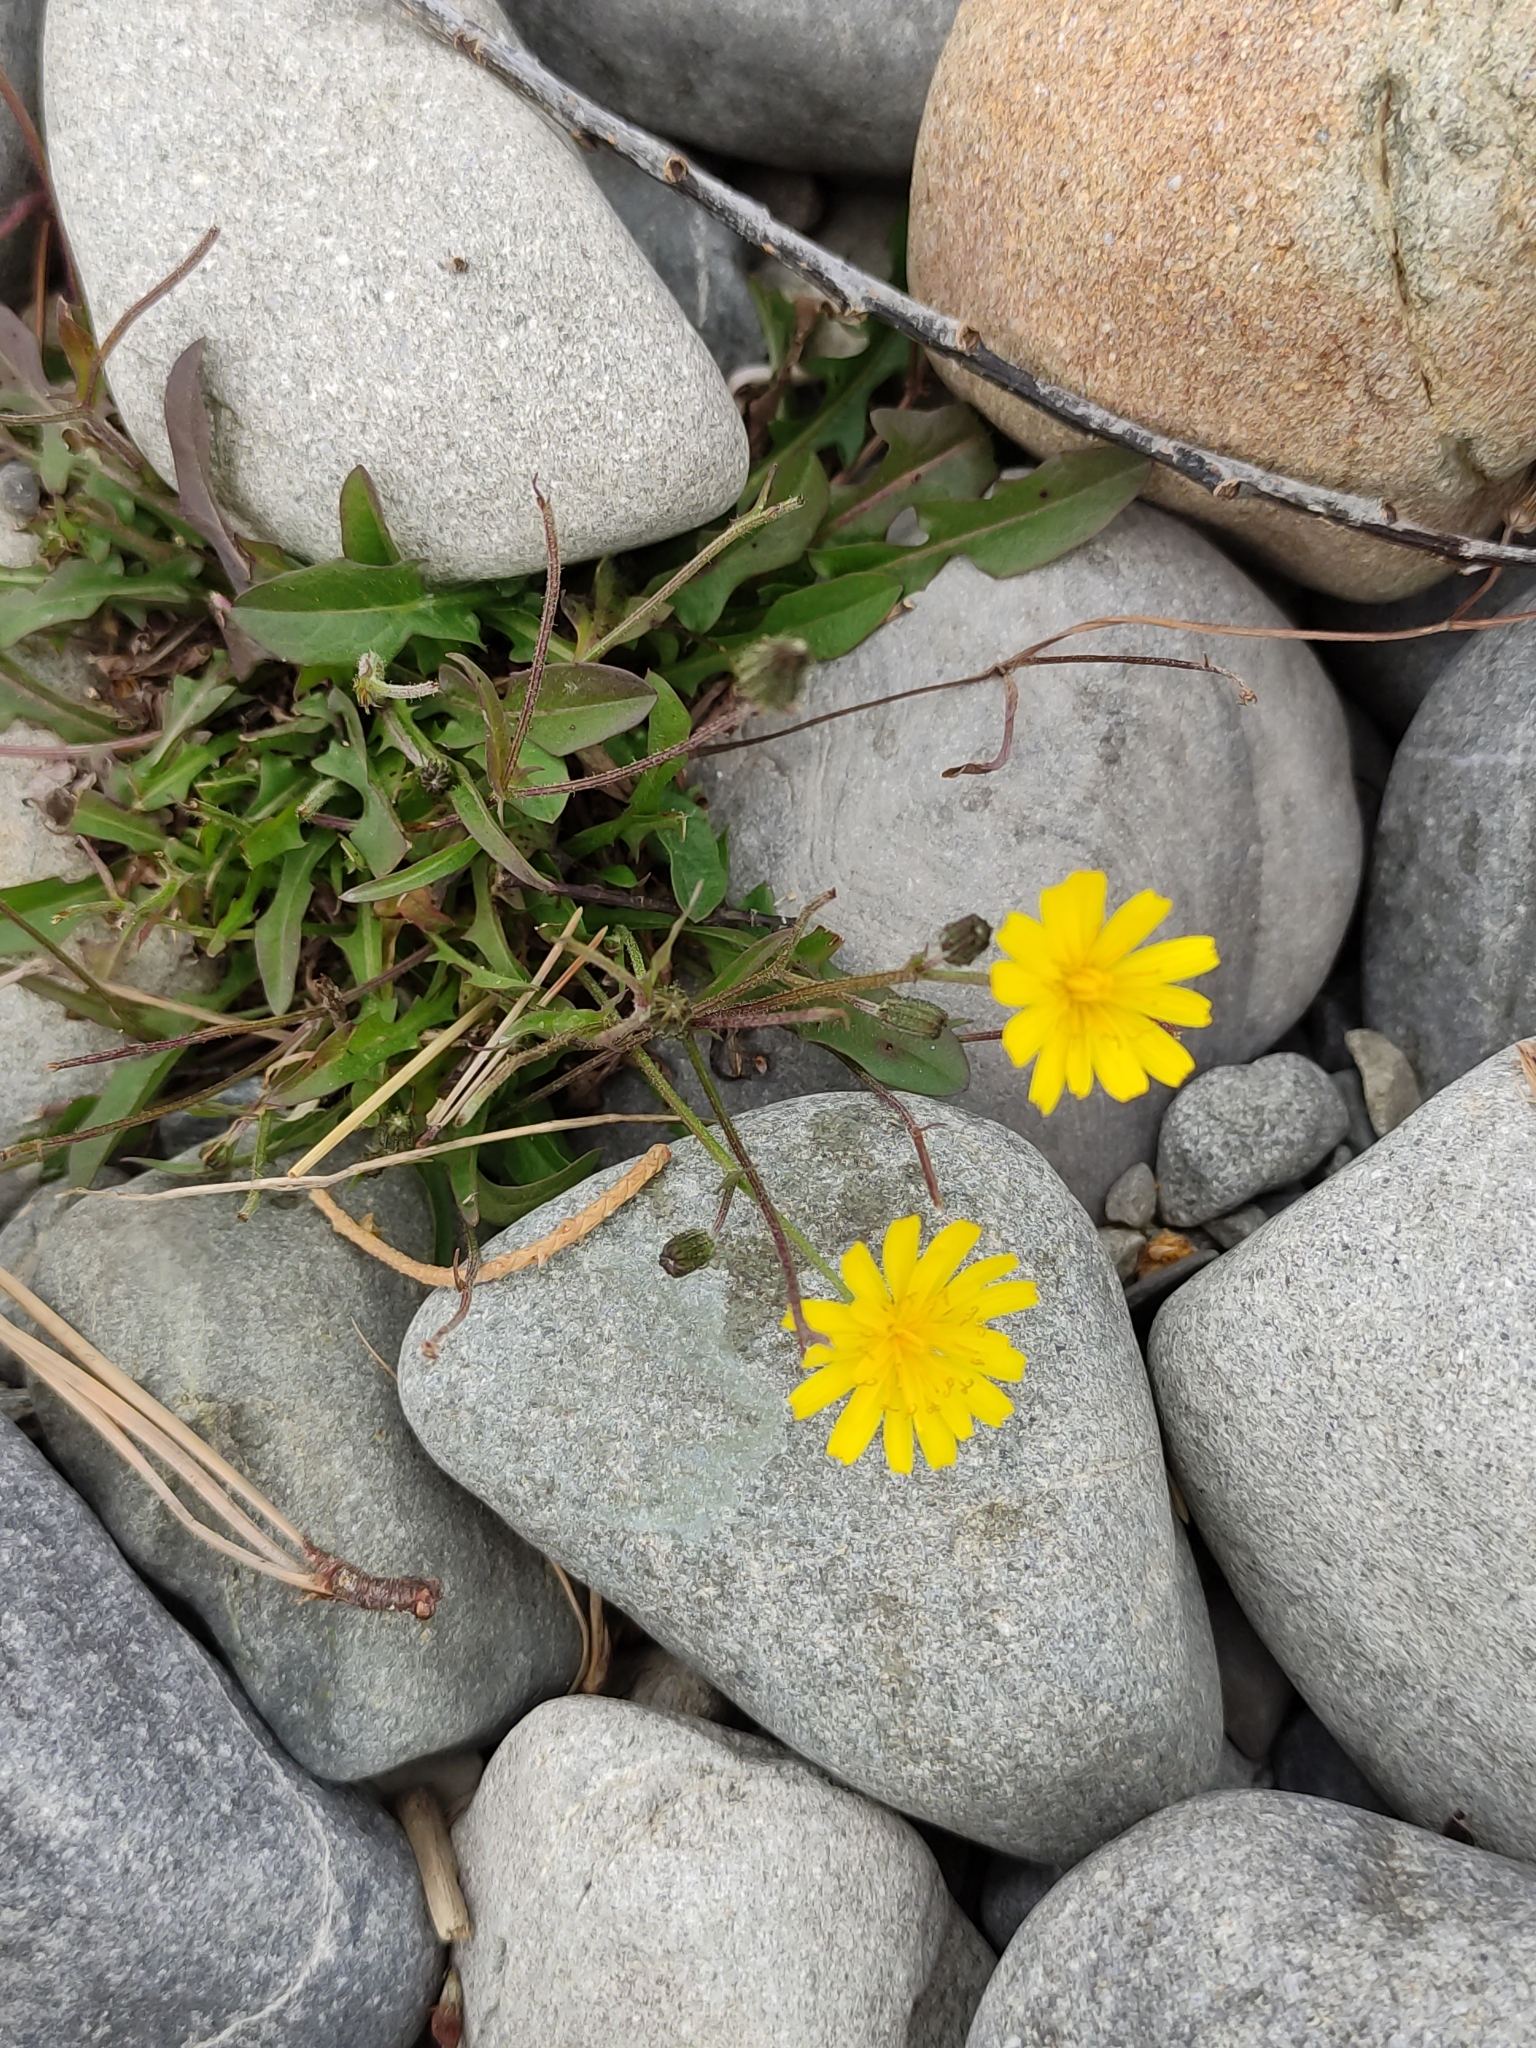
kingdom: Plantae
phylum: Tracheophyta
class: Magnoliopsida
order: Asterales
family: Asteraceae
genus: Crepis
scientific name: Crepis capillaris
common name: Smooth hawksbeard
